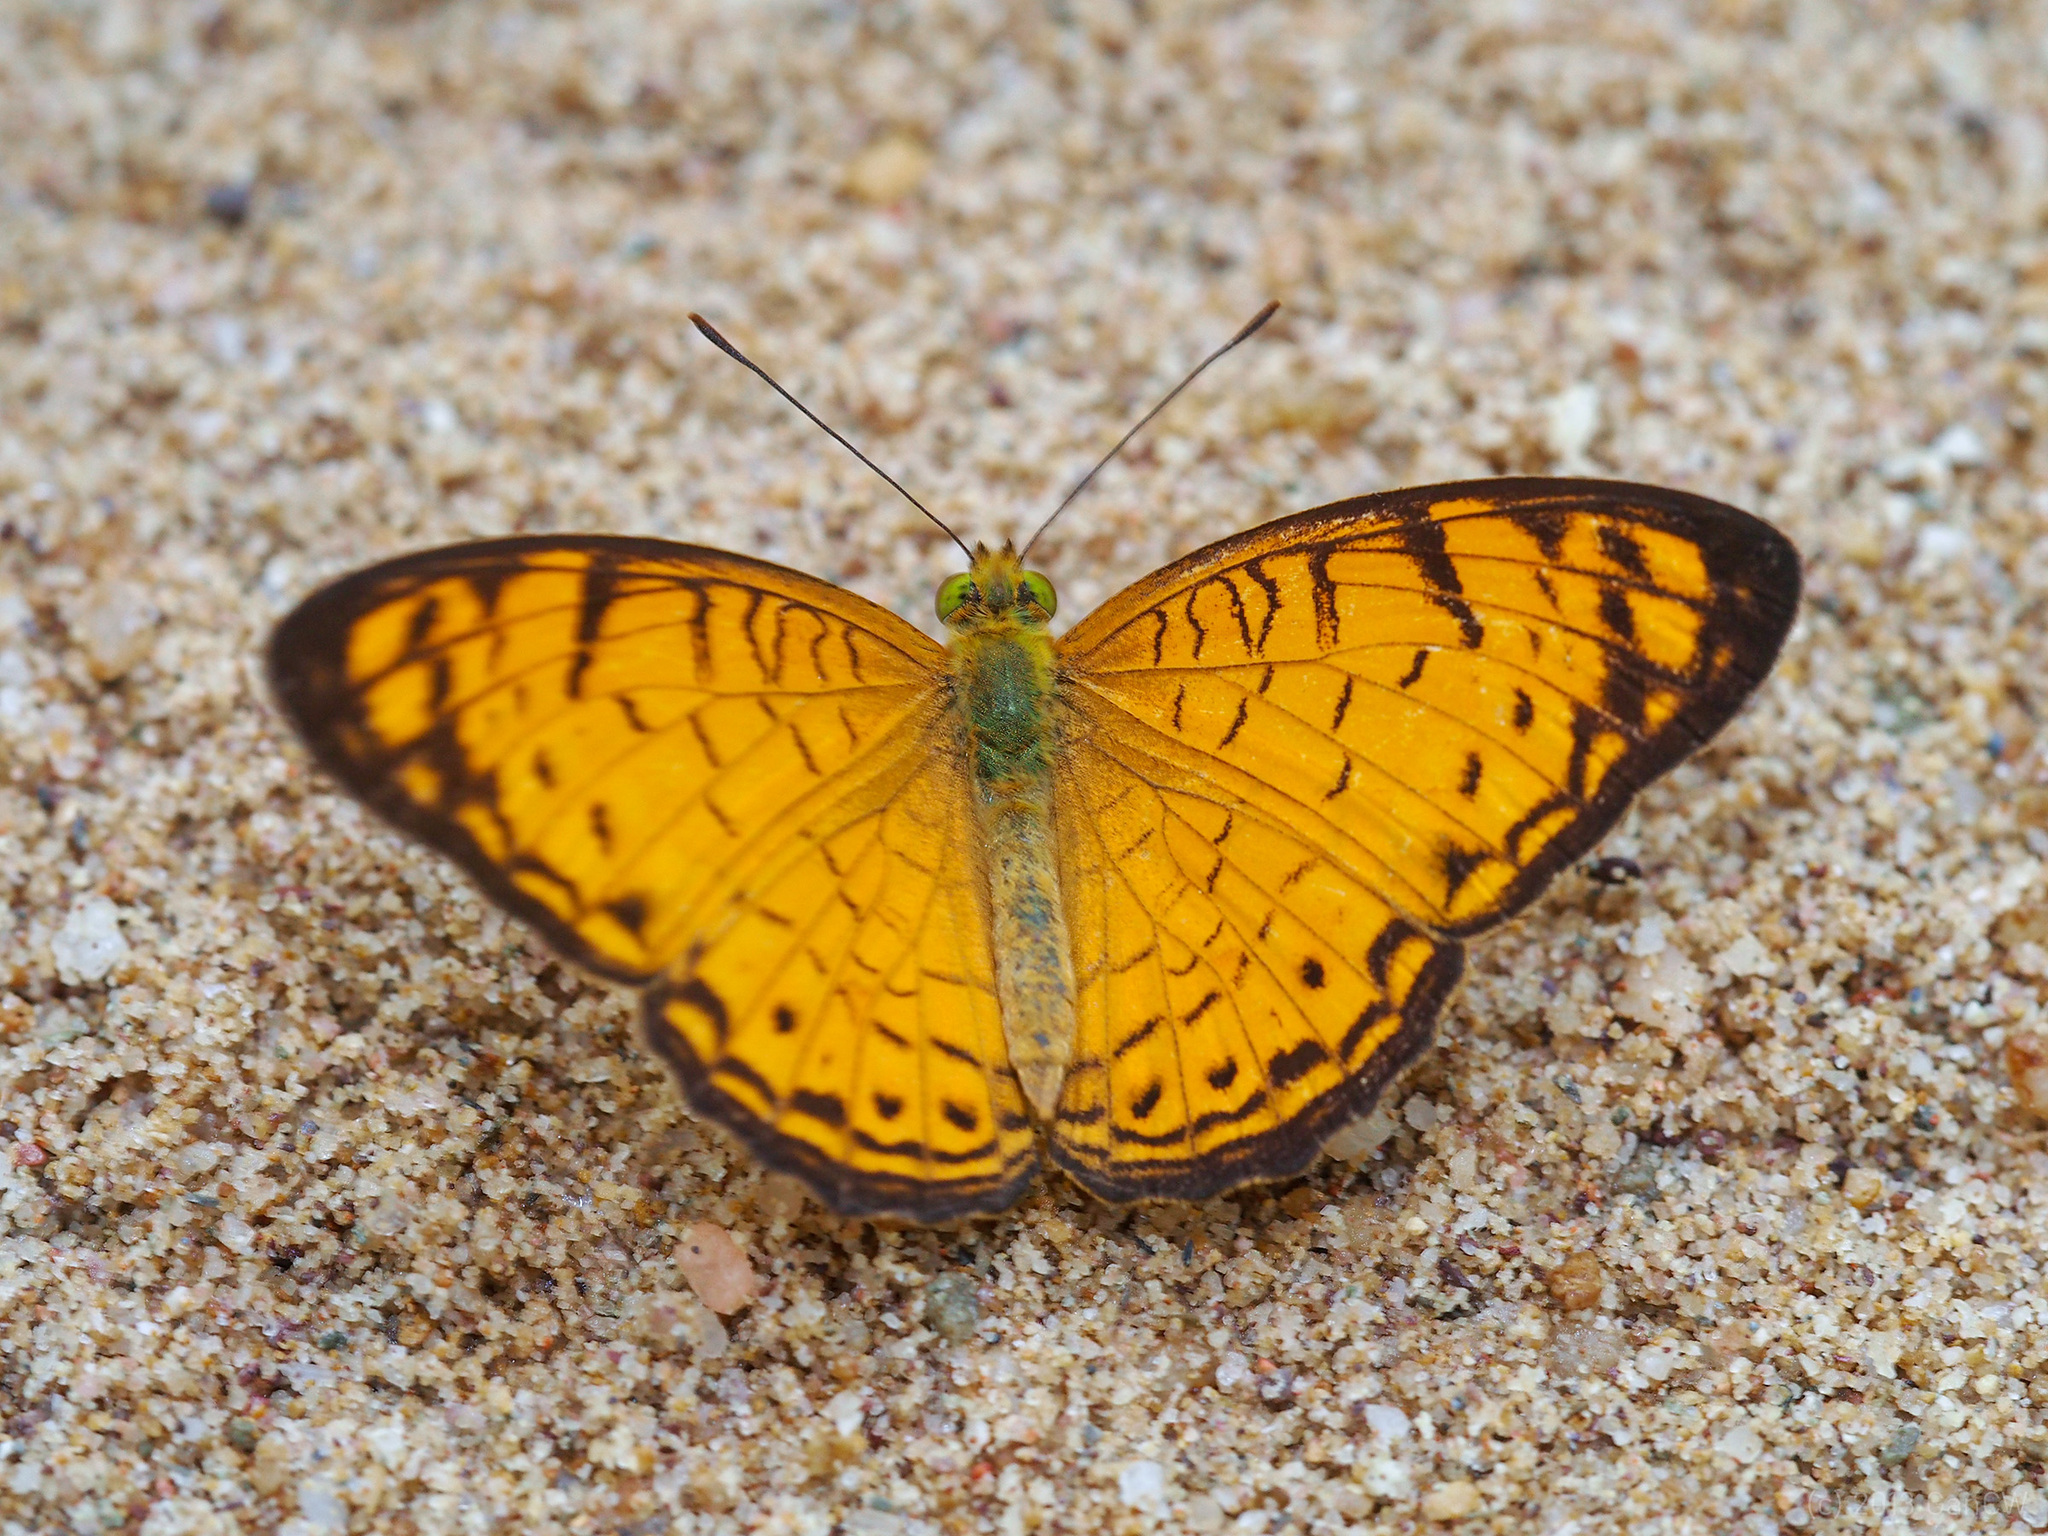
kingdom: Animalia
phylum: Arthropoda
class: Insecta
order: Lepidoptera
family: Nymphalidae
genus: Phalanta
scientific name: Phalanta alcippe
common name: Small leopard
